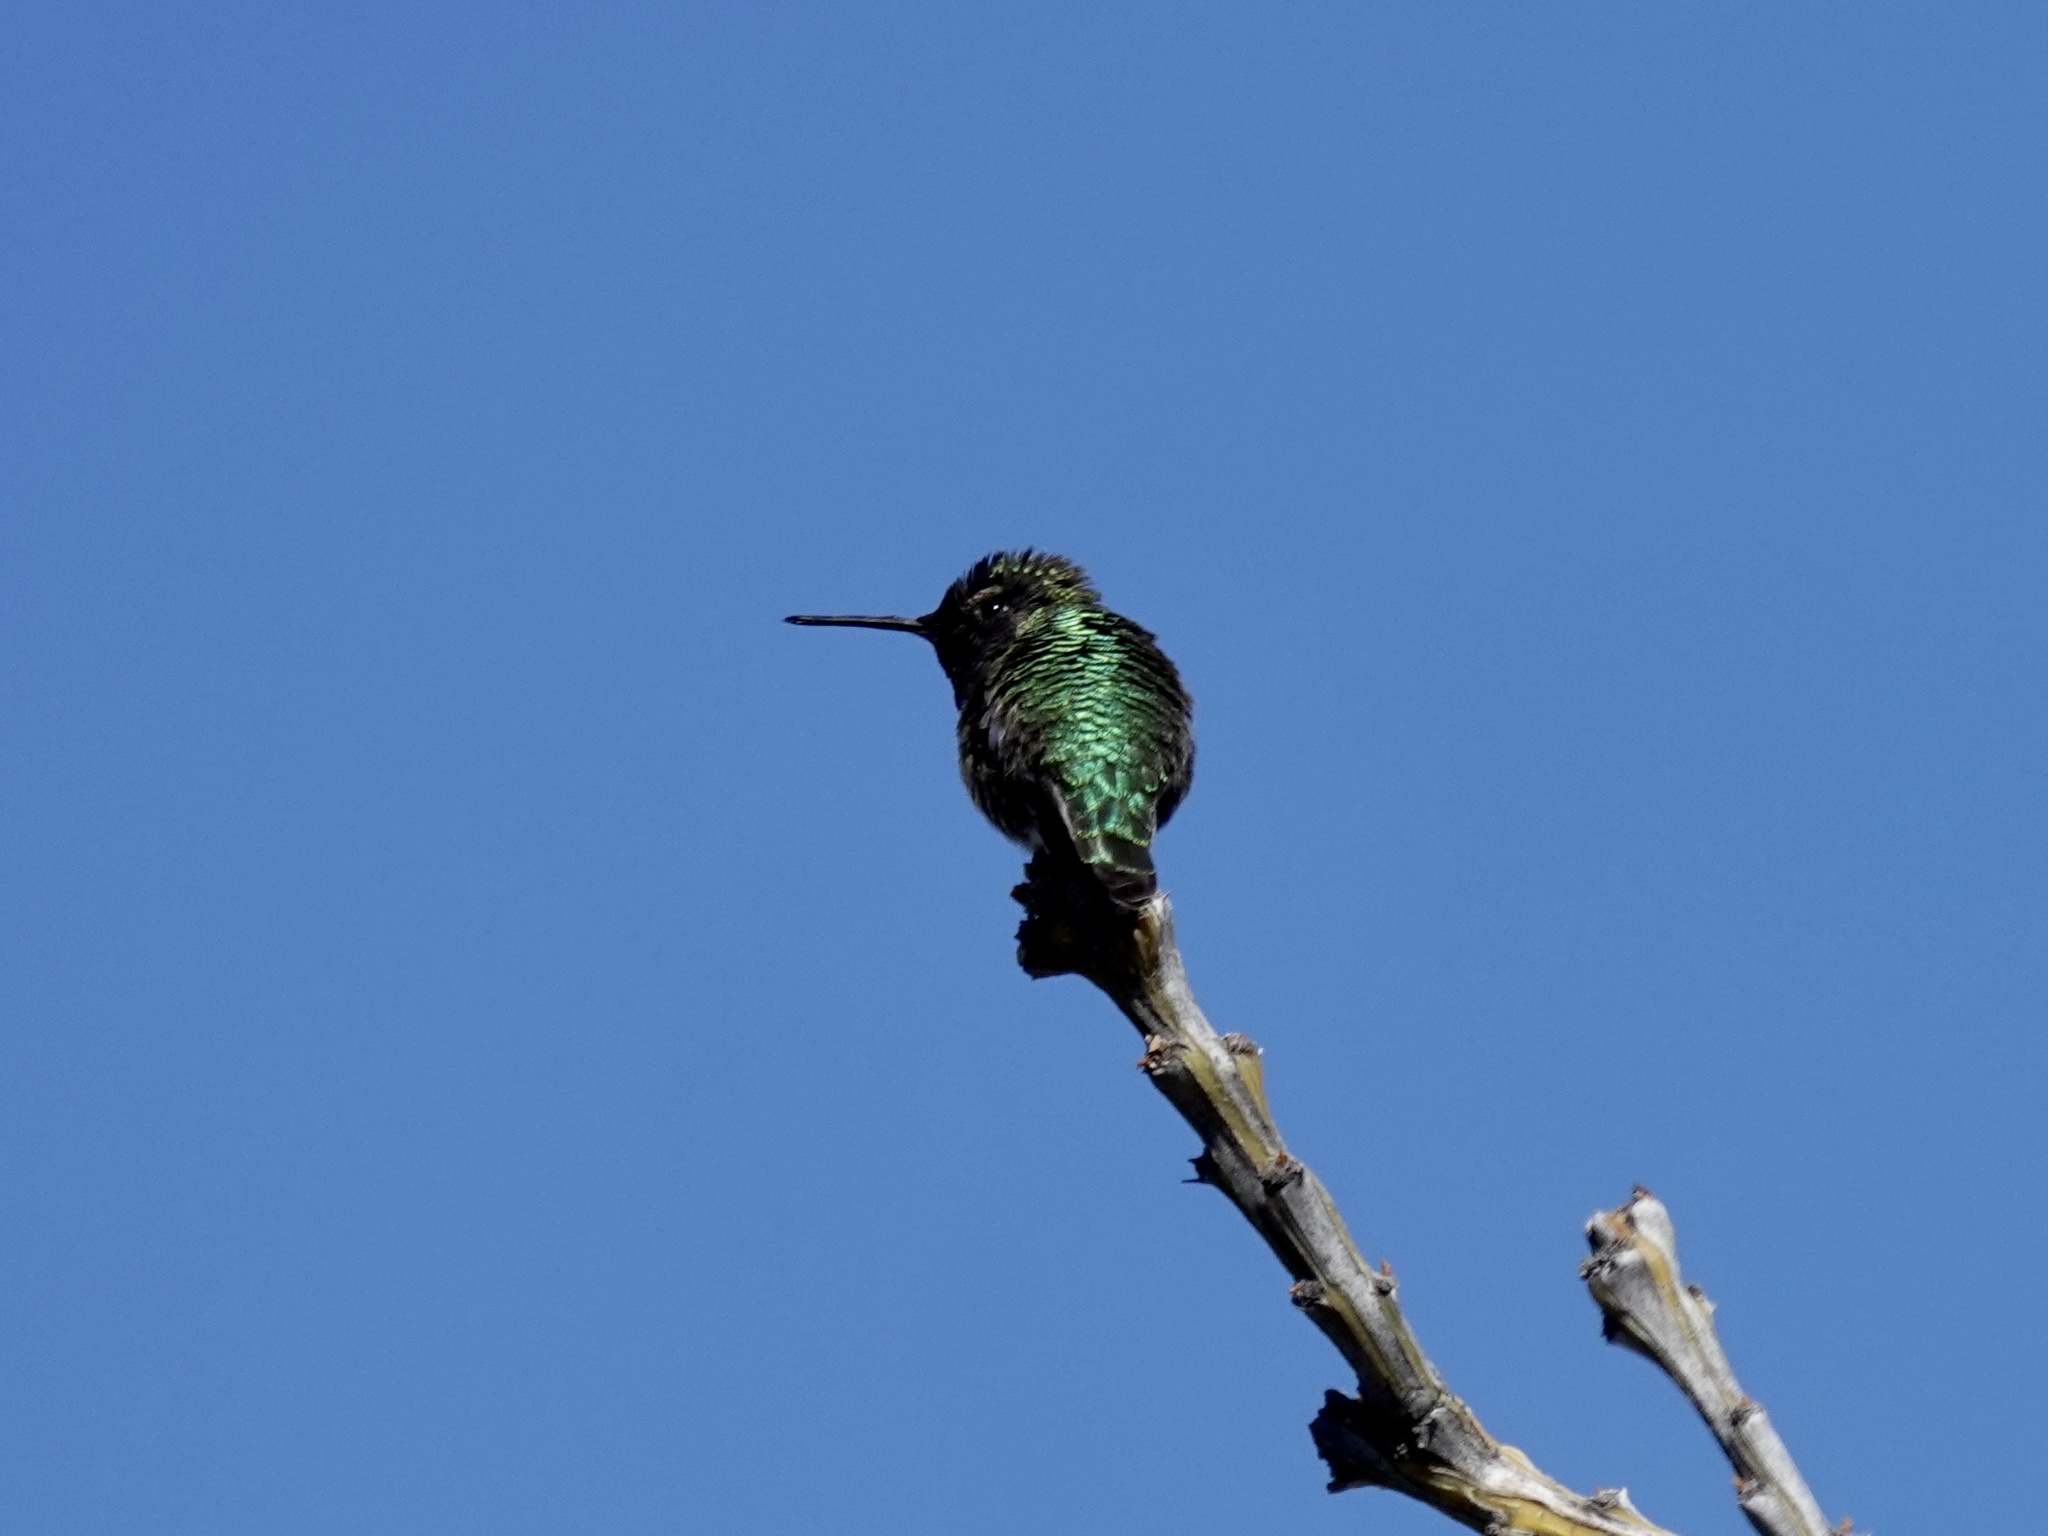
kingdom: Animalia
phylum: Chordata
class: Aves
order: Apodiformes
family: Trochilidae
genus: Calypte
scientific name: Calypte anna
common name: Anna's hummingbird
